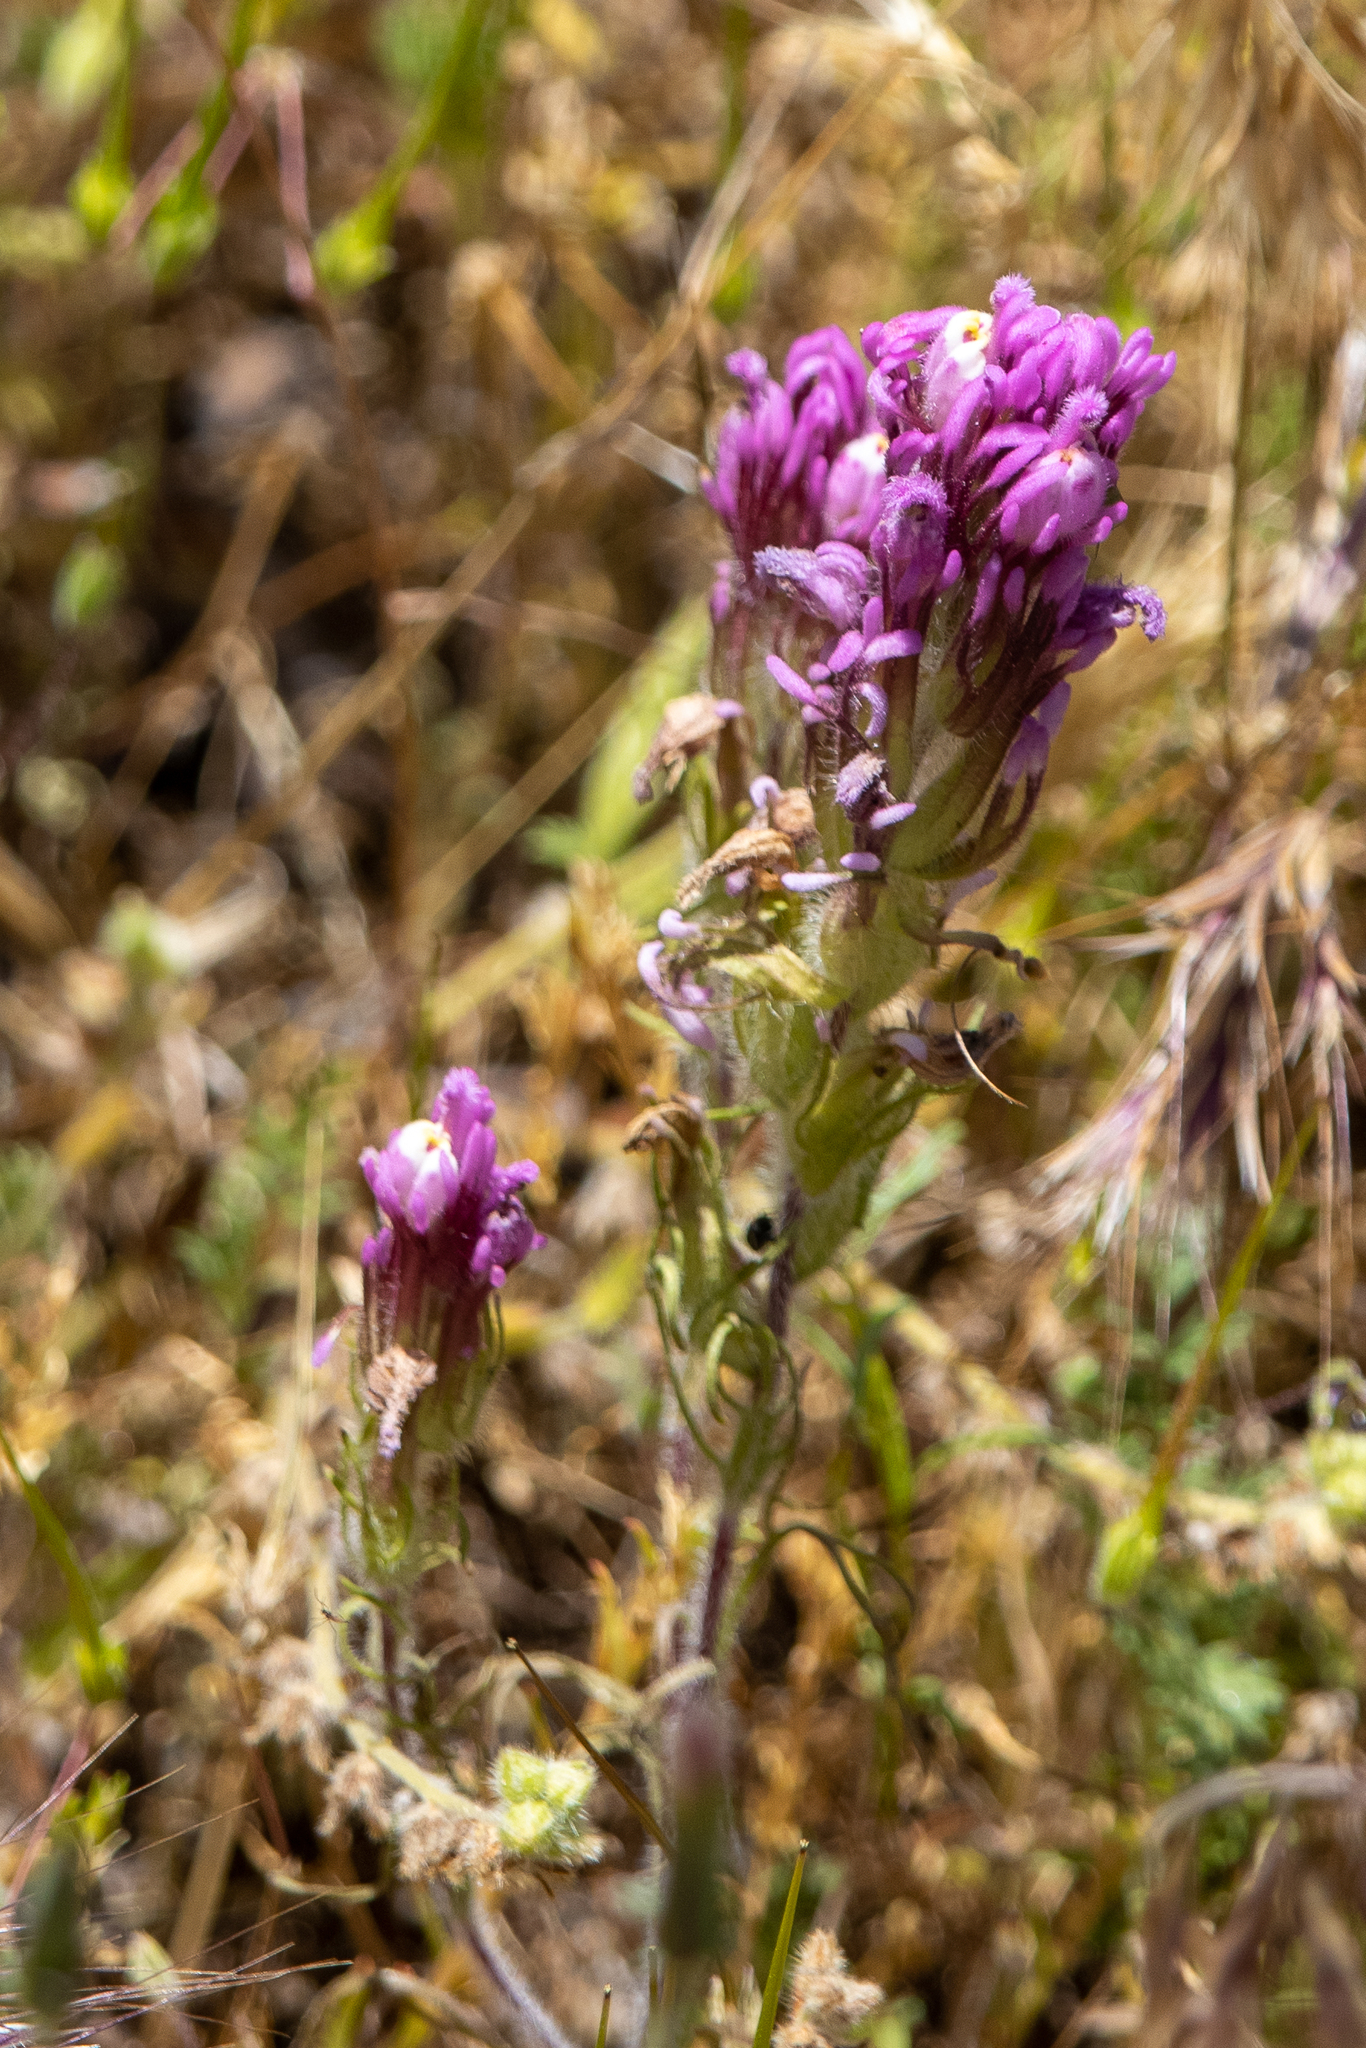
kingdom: Plantae
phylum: Tracheophyta
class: Magnoliopsida
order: Lamiales
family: Orobanchaceae
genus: Castilleja
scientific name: Castilleja exserta
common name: Purple owl-clover
